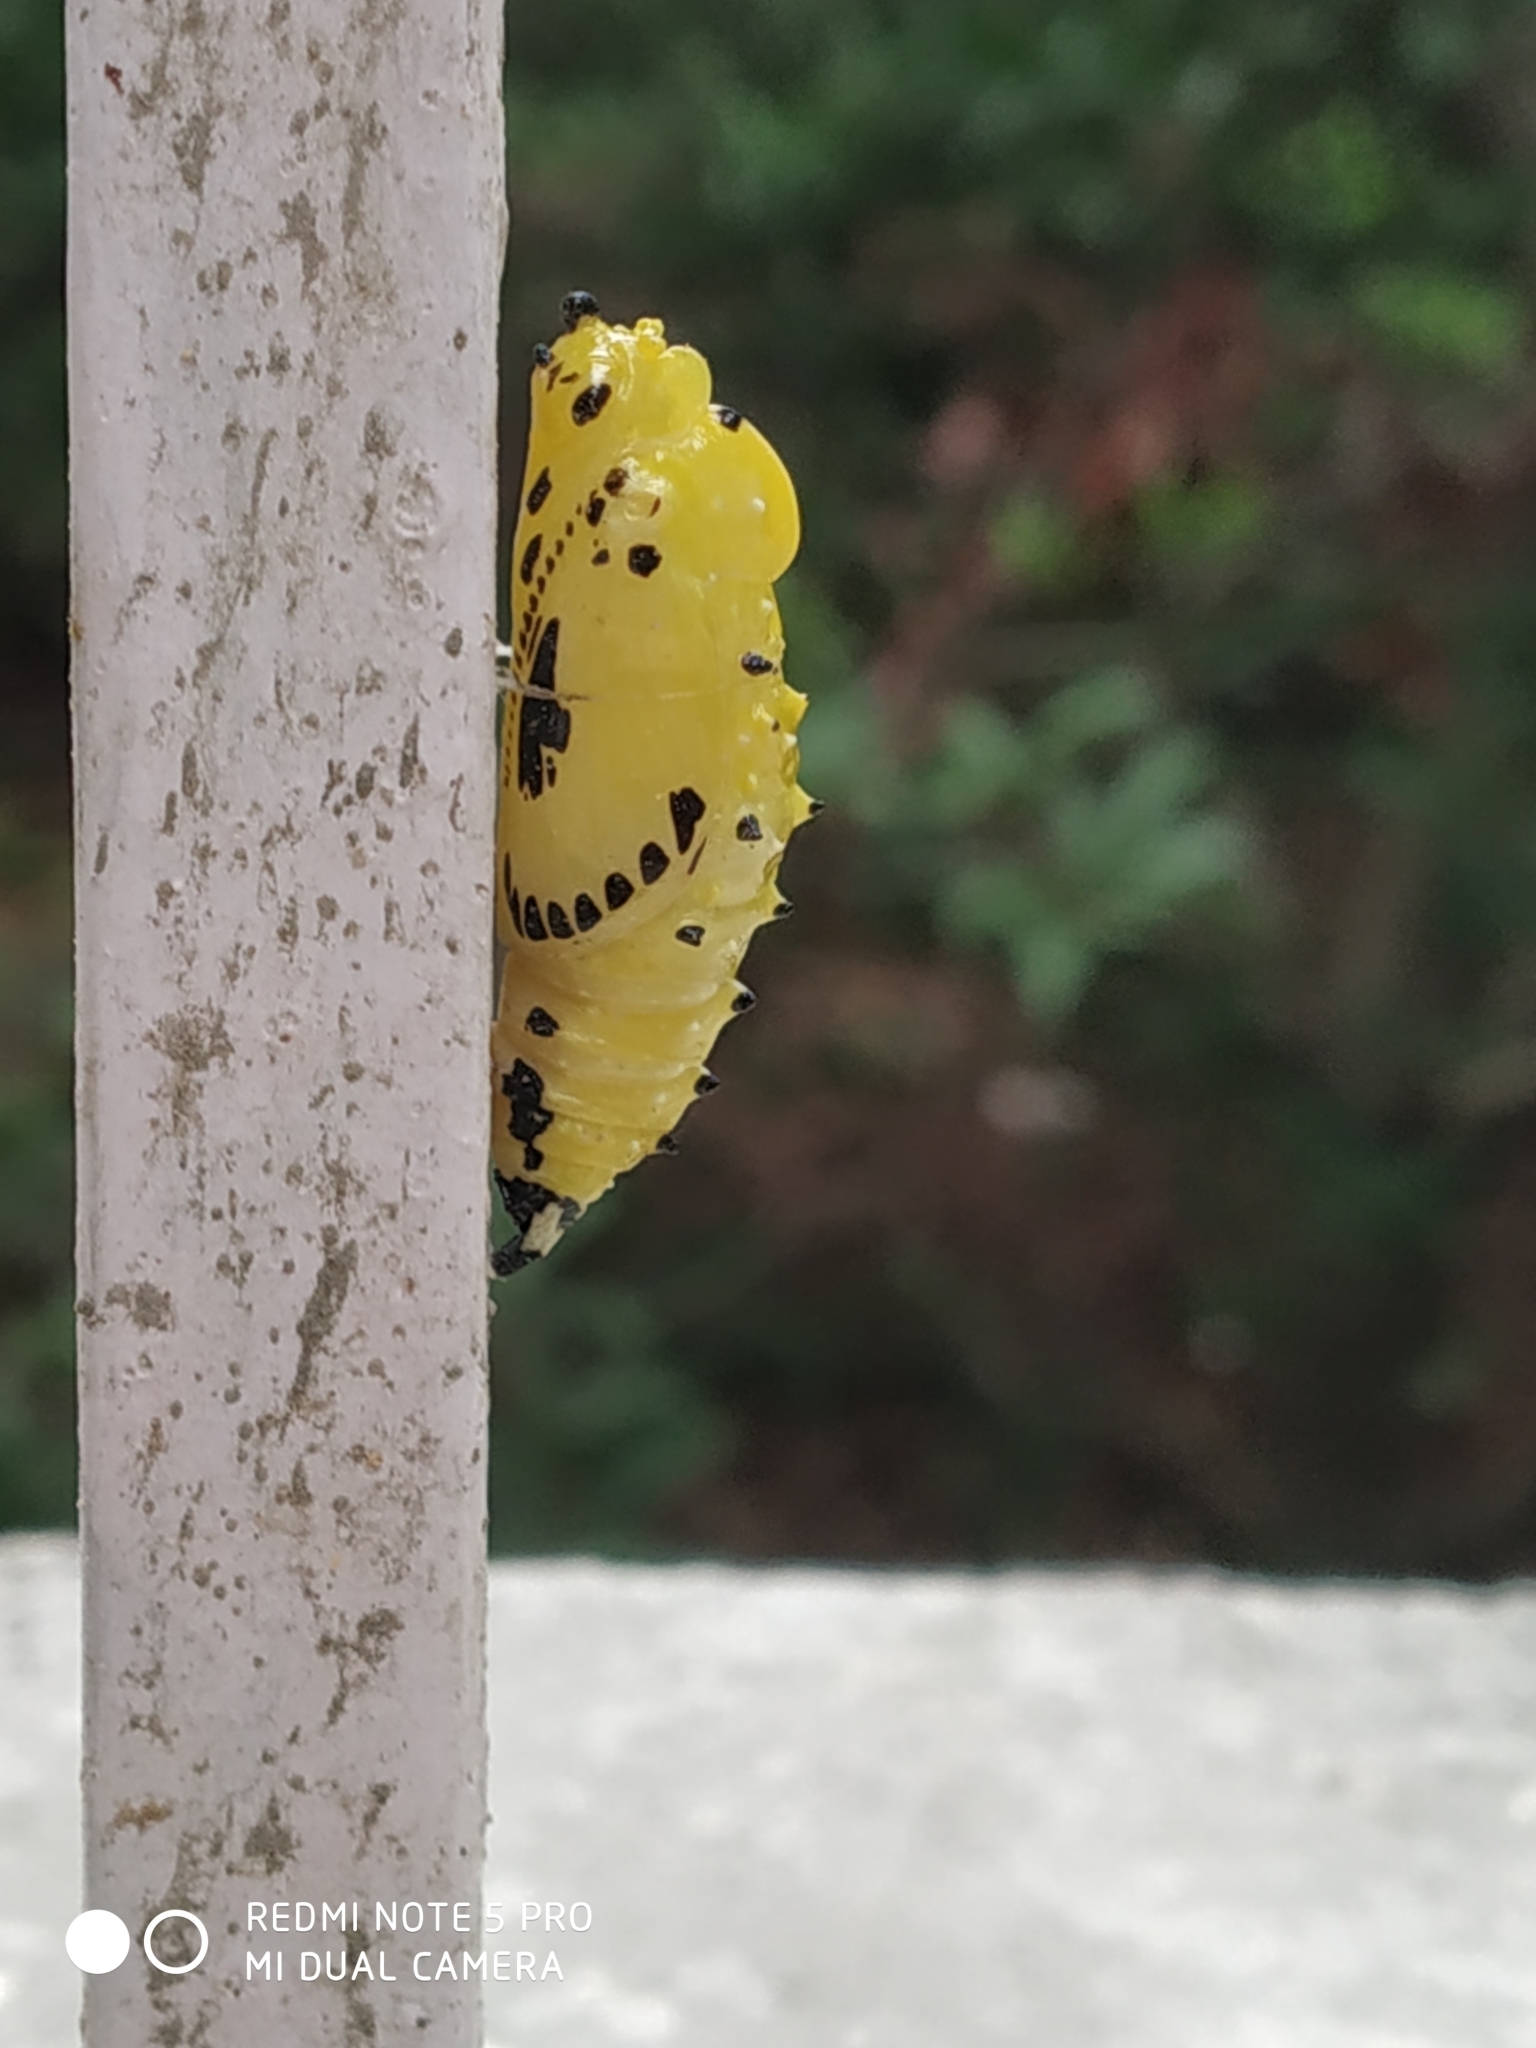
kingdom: Animalia
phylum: Arthropoda
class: Insecta
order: Lepidoptera
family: Pieridae
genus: Delias
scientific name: Delias eucharis
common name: Common jezebel
